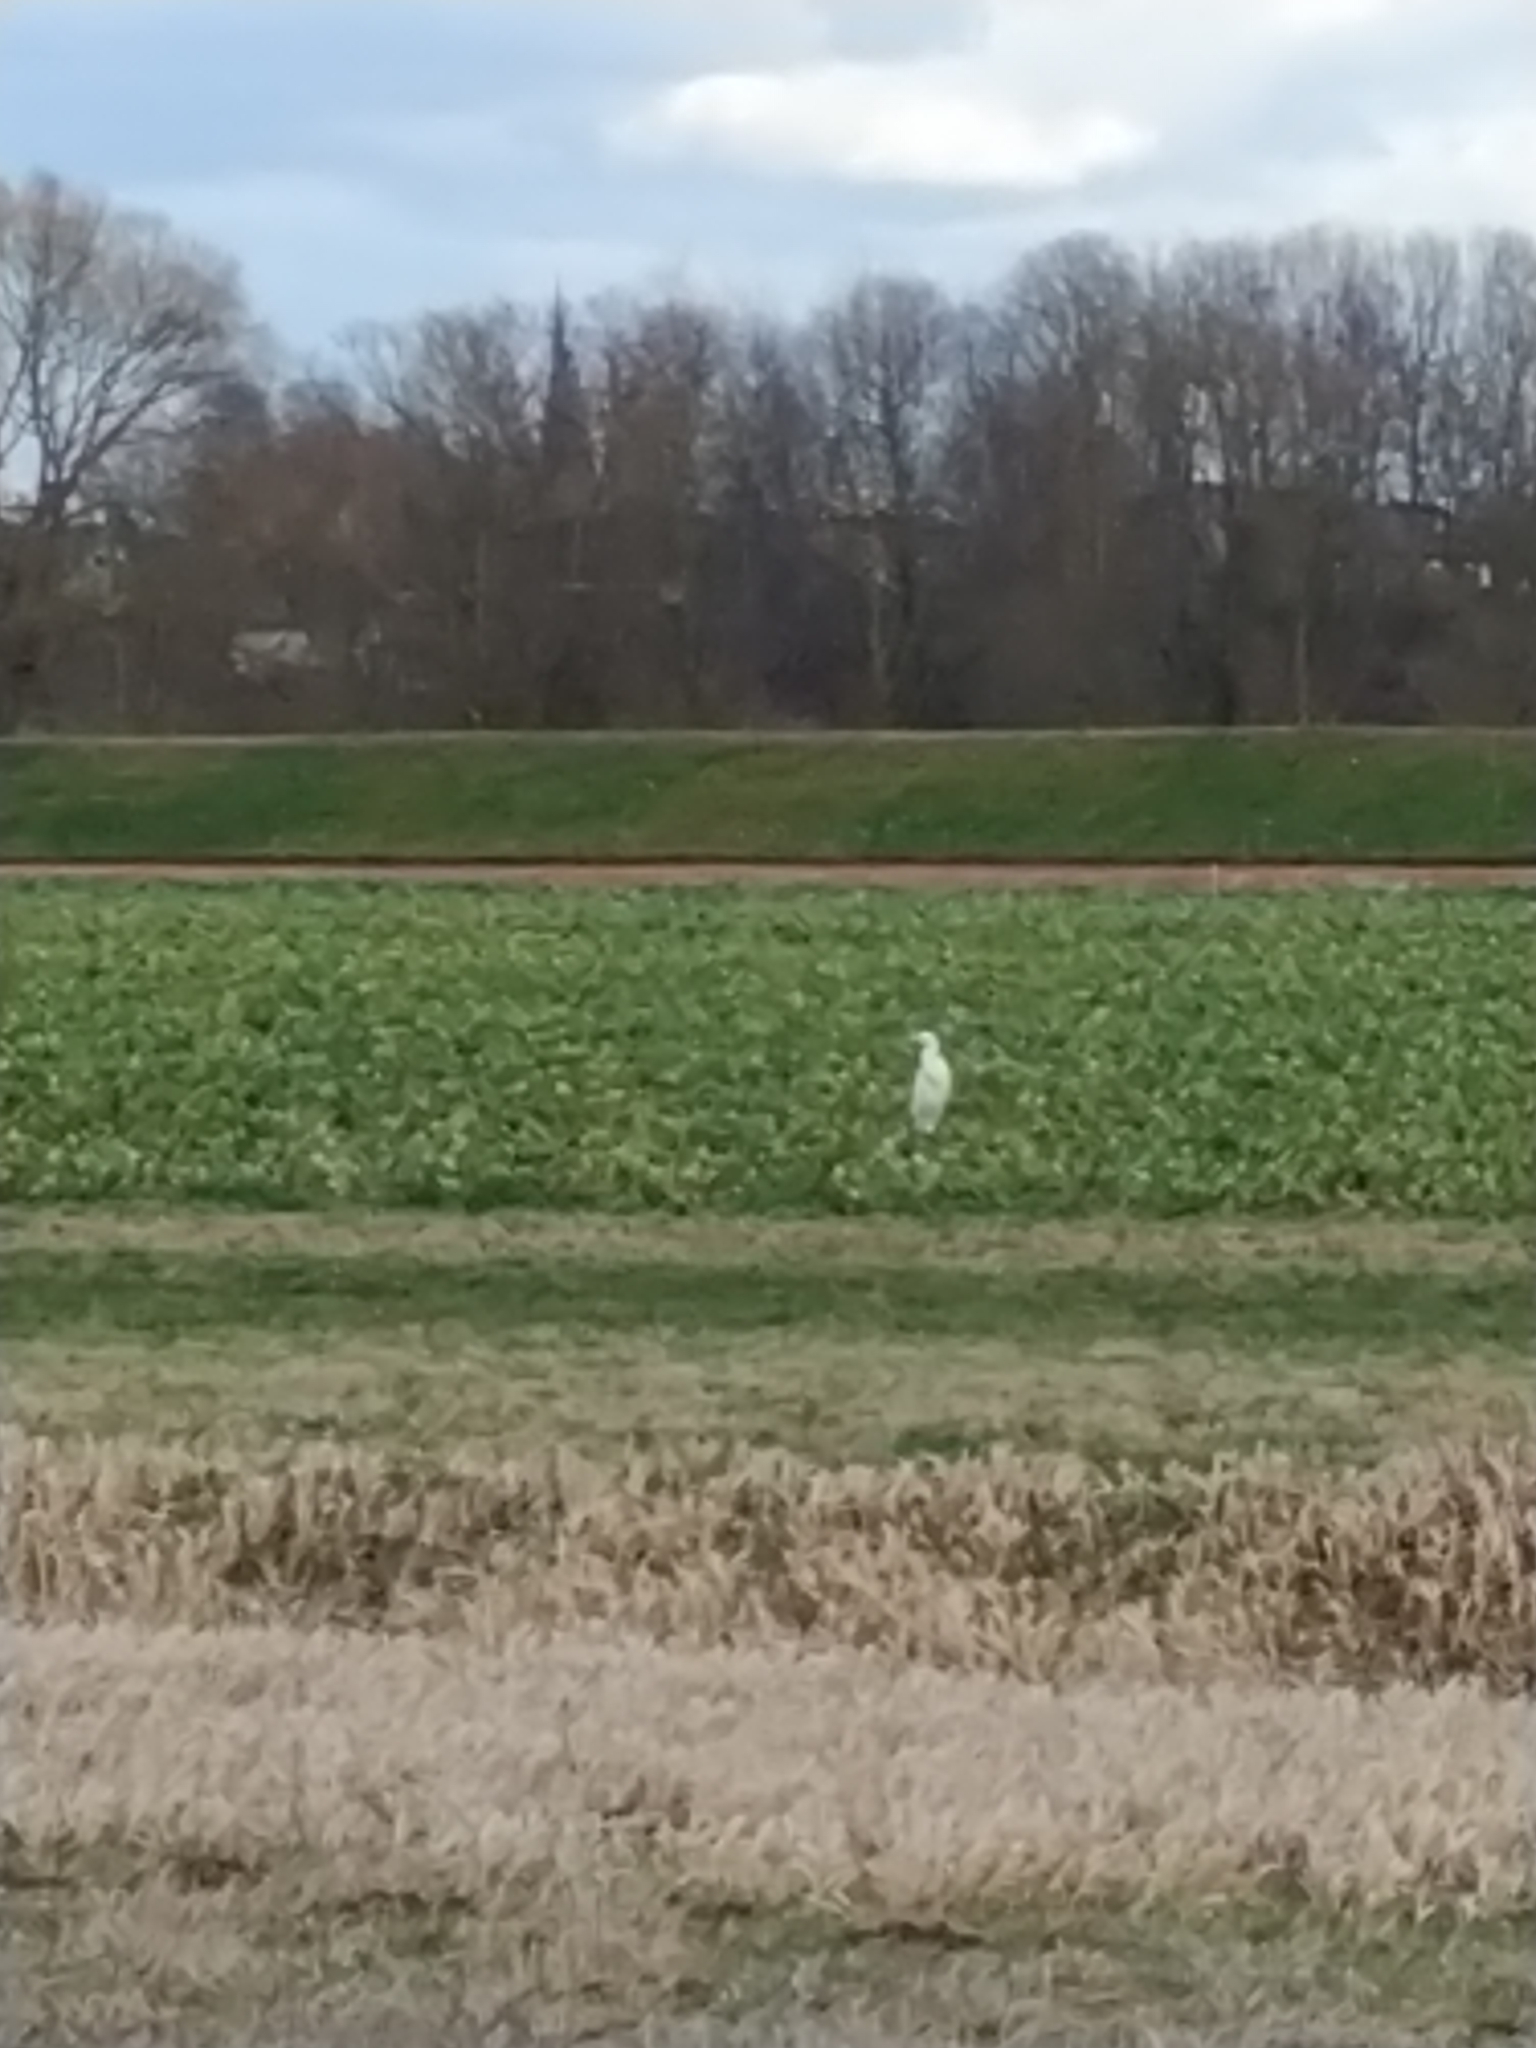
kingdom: Animalia
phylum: Chordata
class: Aves
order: Pelecaniformes
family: Ardeidae
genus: Ardea
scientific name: Ardea alba
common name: Great egret
